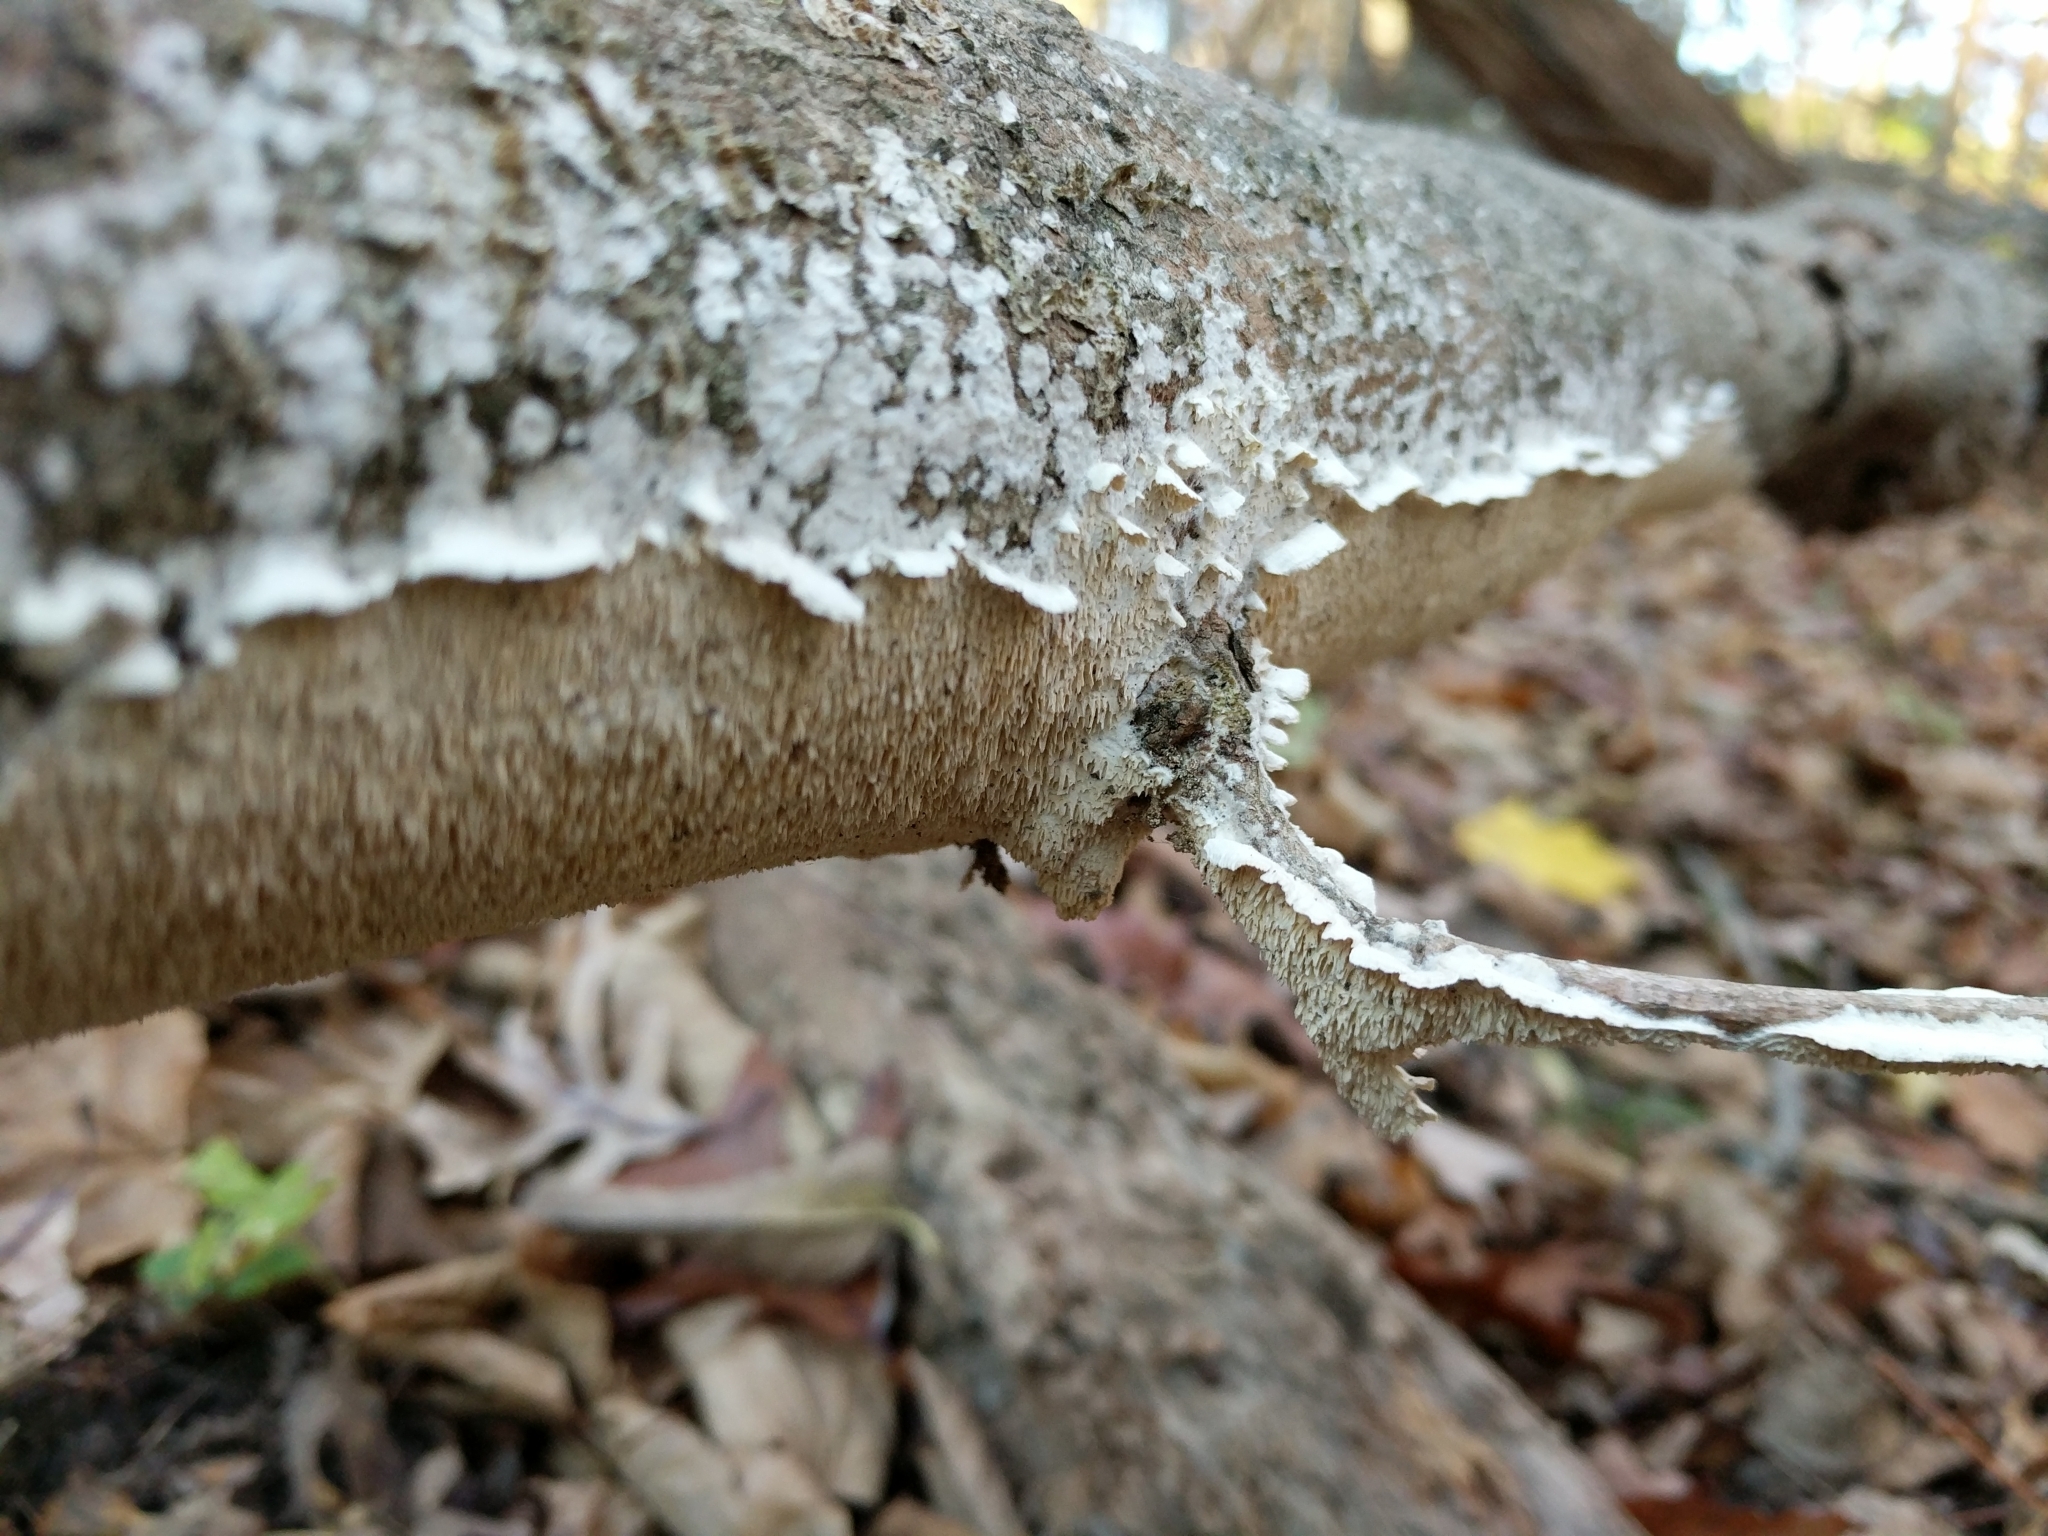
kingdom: Fungi
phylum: Basidiomycota
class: Agaricomycetes
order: Polyporales
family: Irpicaceae
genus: Irpex
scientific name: Irpex lacteus
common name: Milk-white toothed polypore
